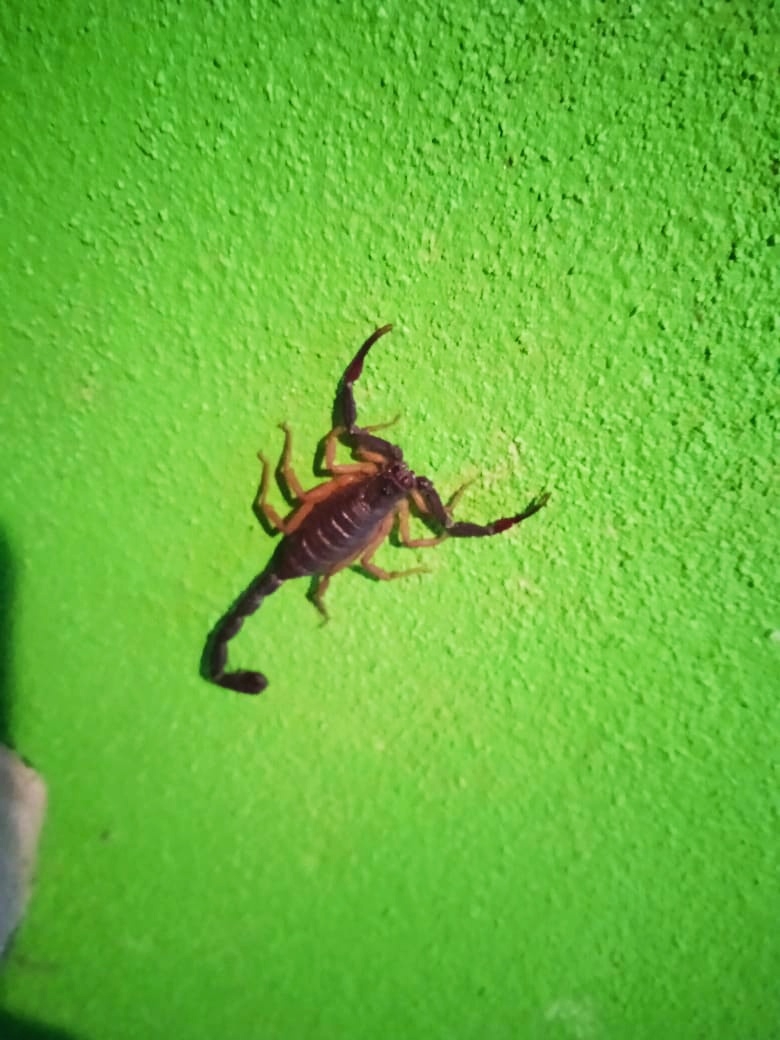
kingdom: Animalia
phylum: Arthropoda
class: Arachnida
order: Scorpiones
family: Buthidae
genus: Centruroides
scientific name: Centruroides gracilis
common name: Scorpions
